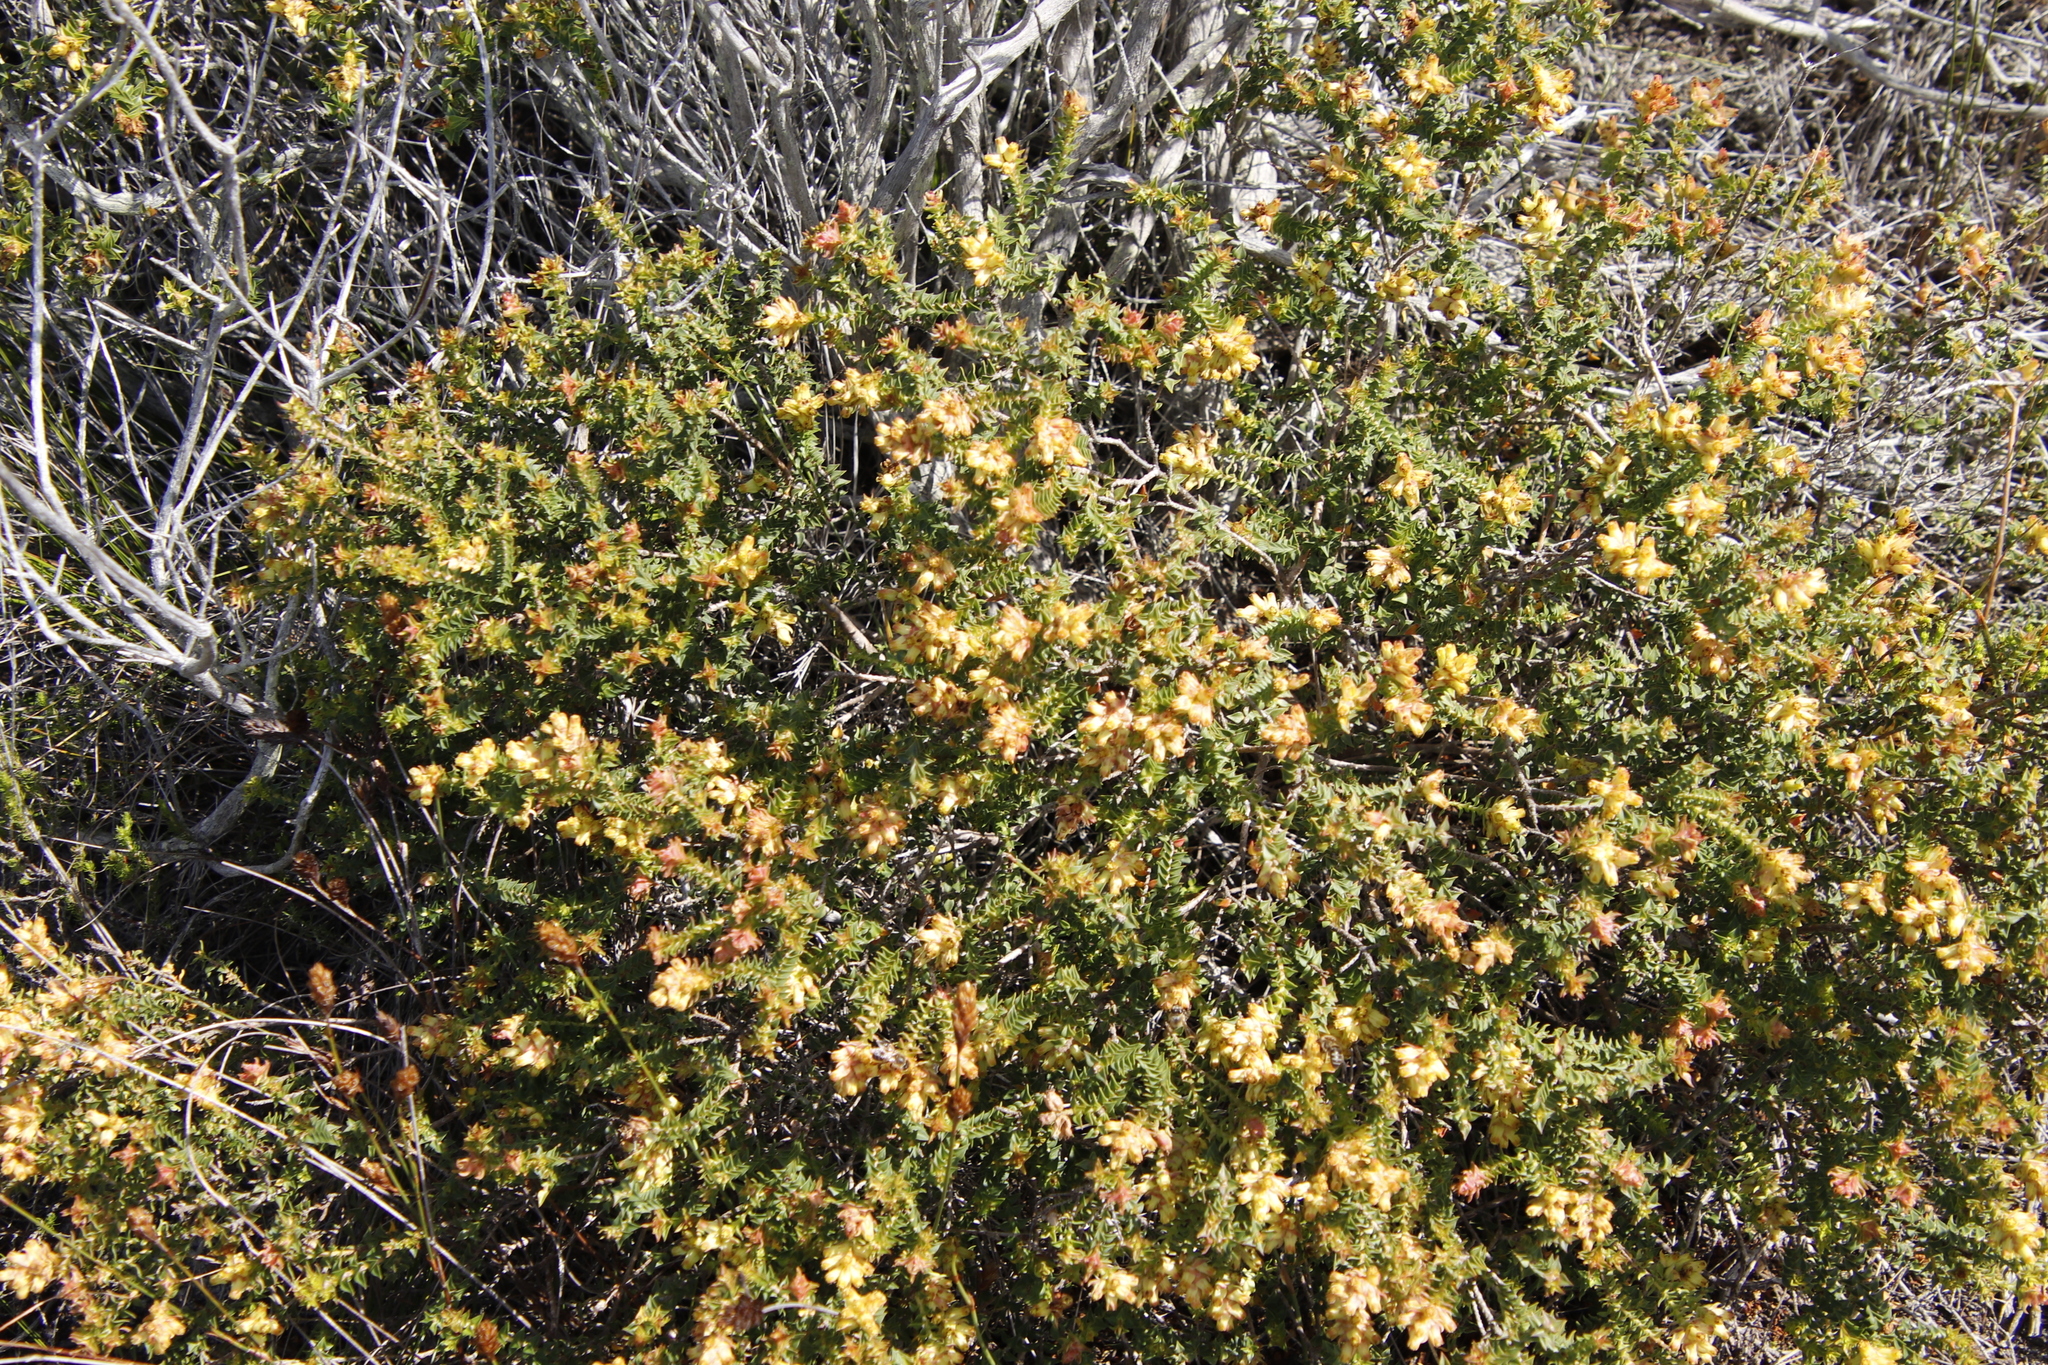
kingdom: Plantae
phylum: Tracheophyta
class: Magnoliopsida
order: Myrtales
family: Penaeaceae
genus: Penaea
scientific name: Penaea mucronata
